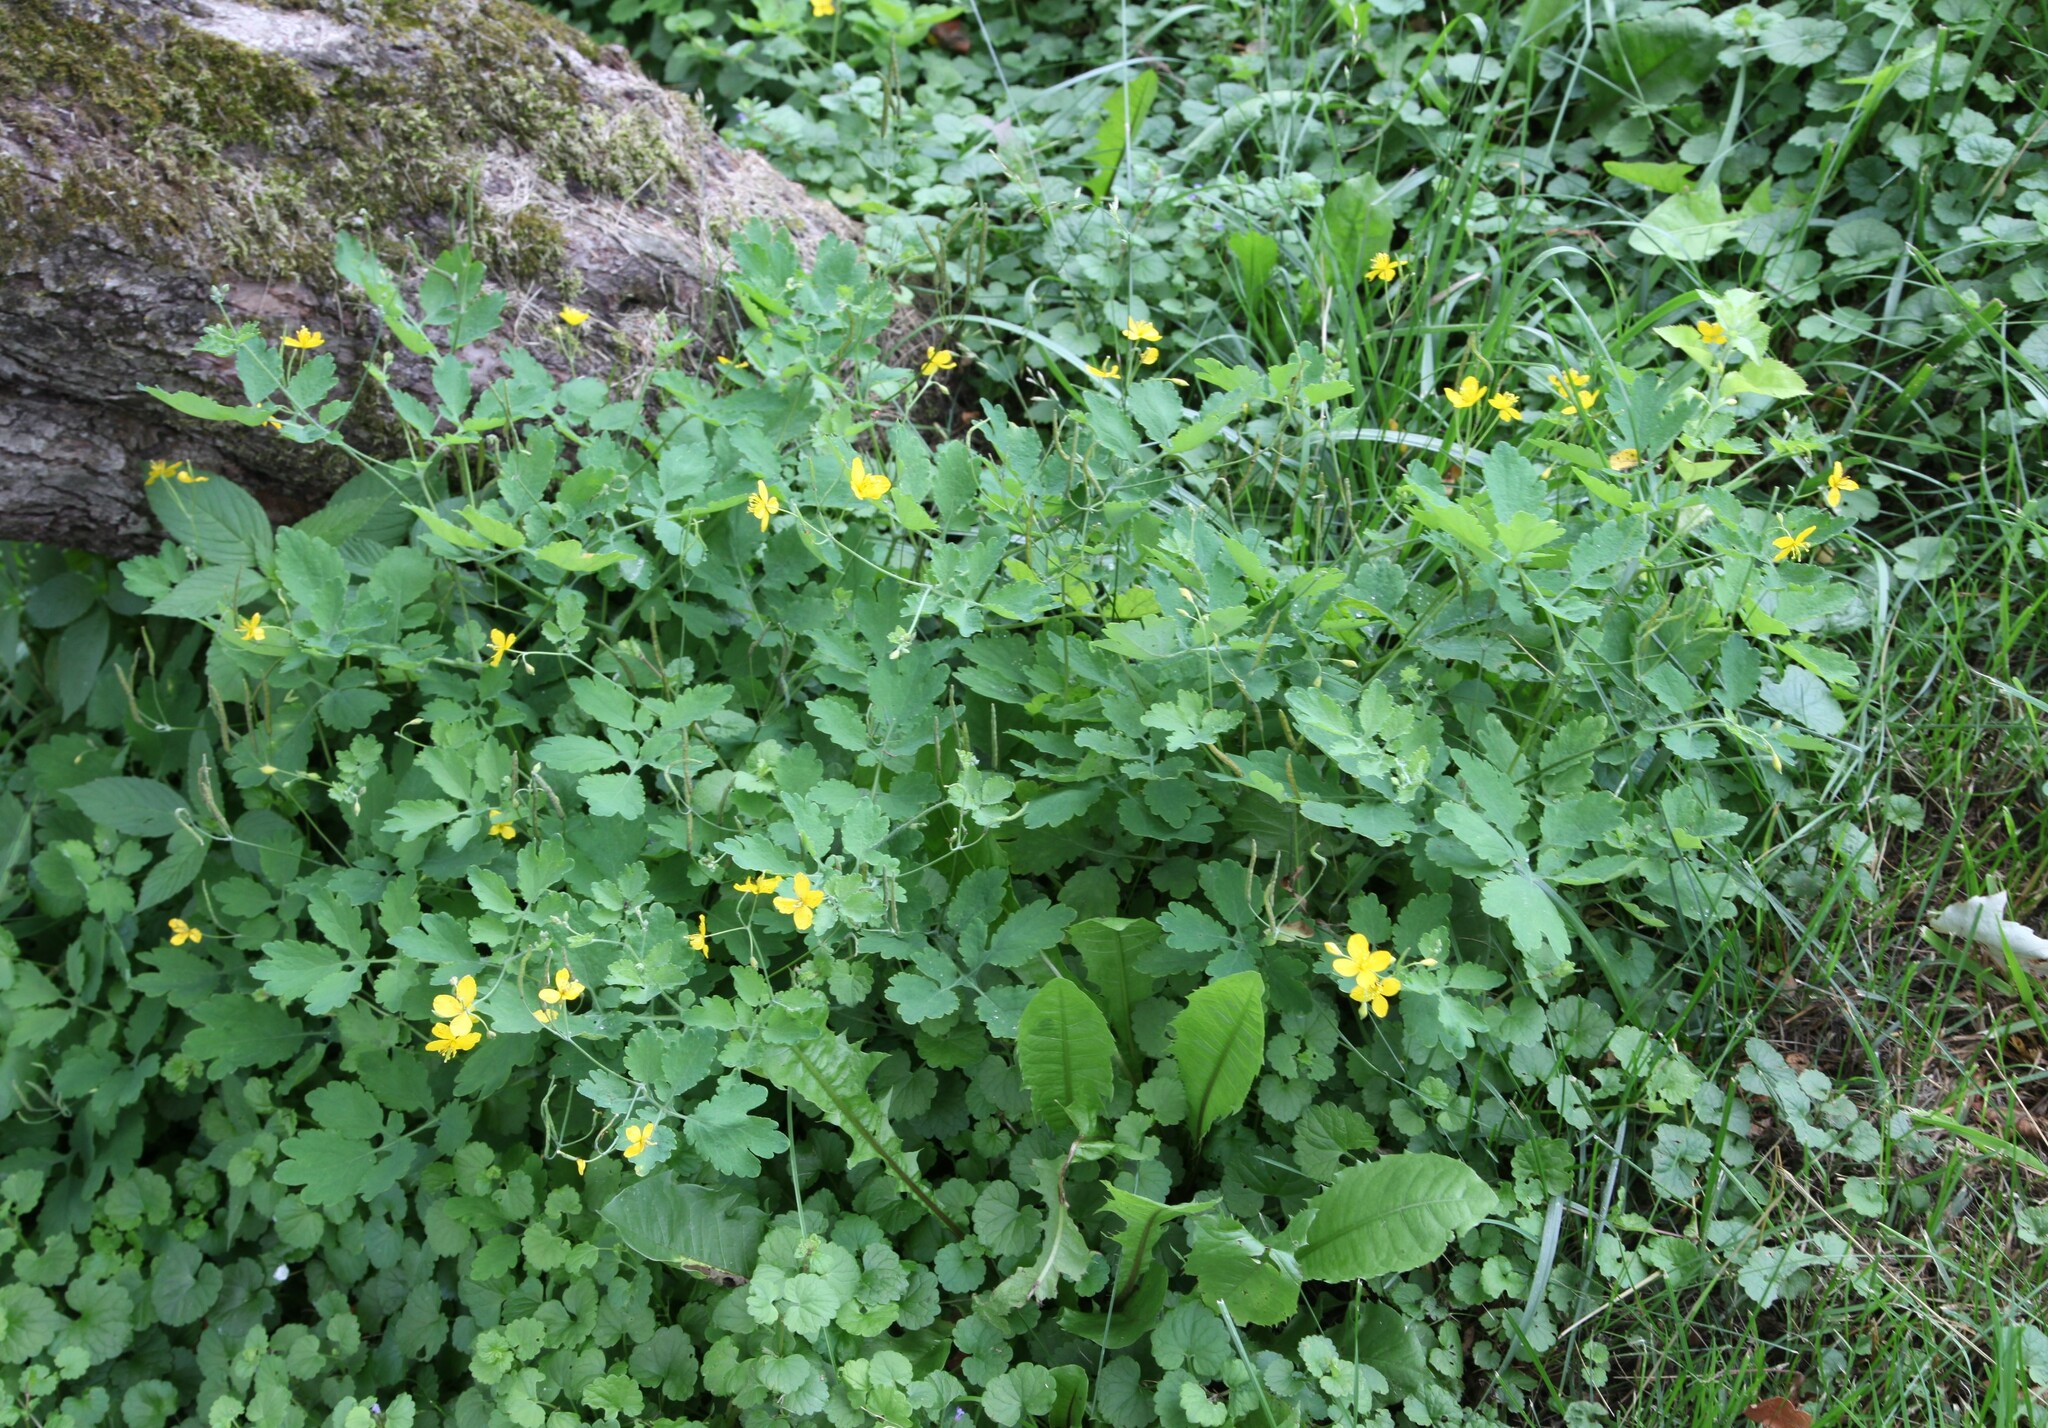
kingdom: Plantae
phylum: Tracheophyta
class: Magnoliopsida
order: Ranunculales
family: Papaveraceae
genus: Chelidonium
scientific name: Chelidonium majus
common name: Greater celandine
